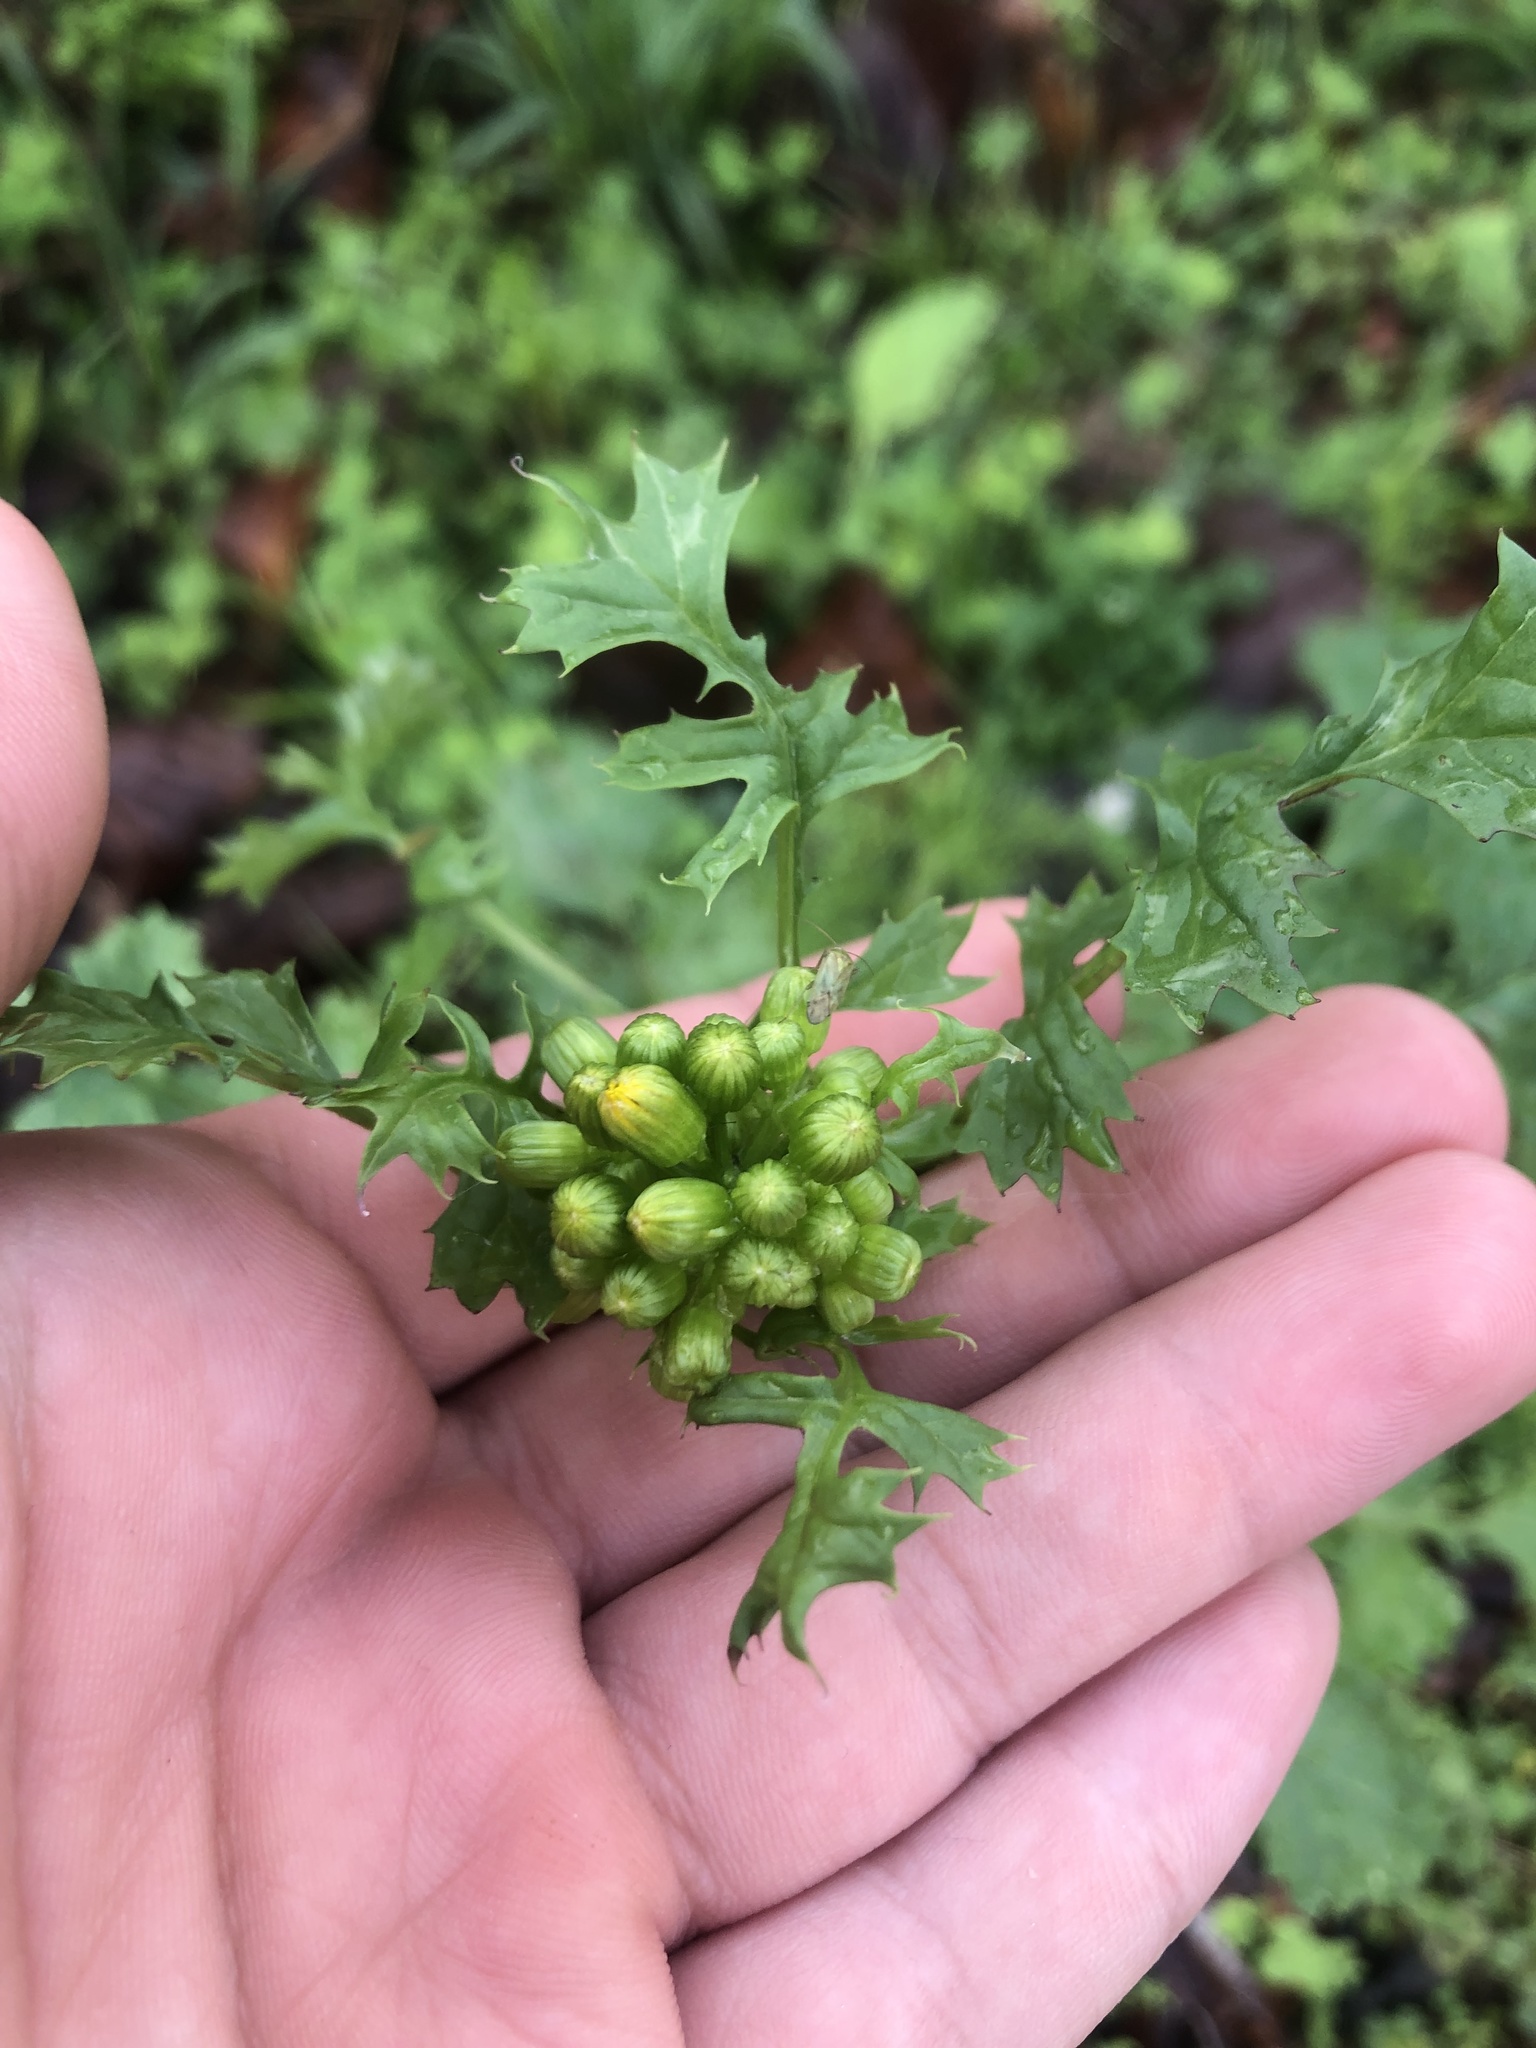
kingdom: Plantae
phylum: Tracheophyta
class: Magnoliopsida
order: Asterales
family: Asteraceae
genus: Packera
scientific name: Packera glabella
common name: Butterweed
